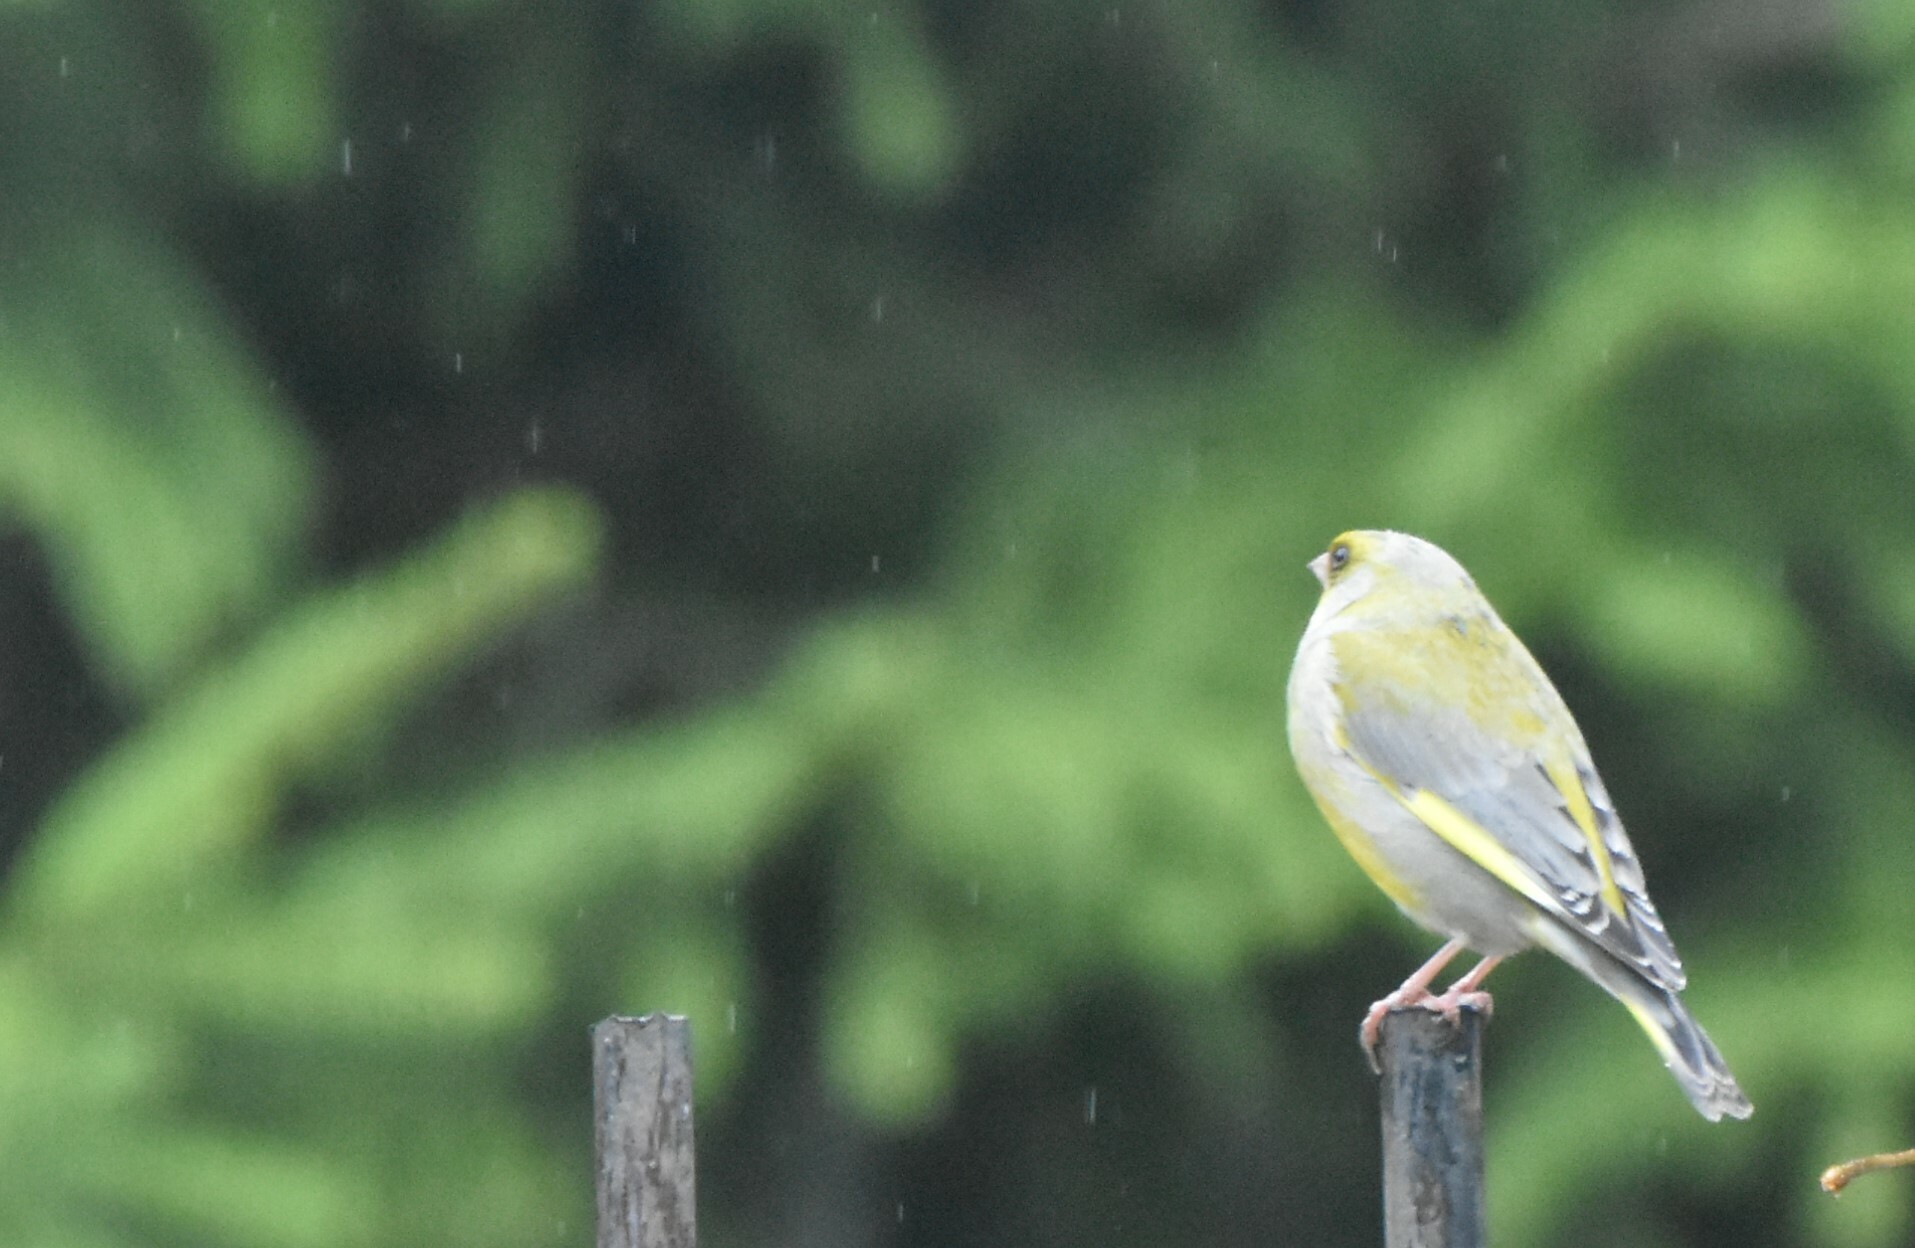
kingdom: Plantae
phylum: Tracheophyta
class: Liliopsida
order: Poales
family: Poaceae
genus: Chloris
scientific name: Chloris chloris
